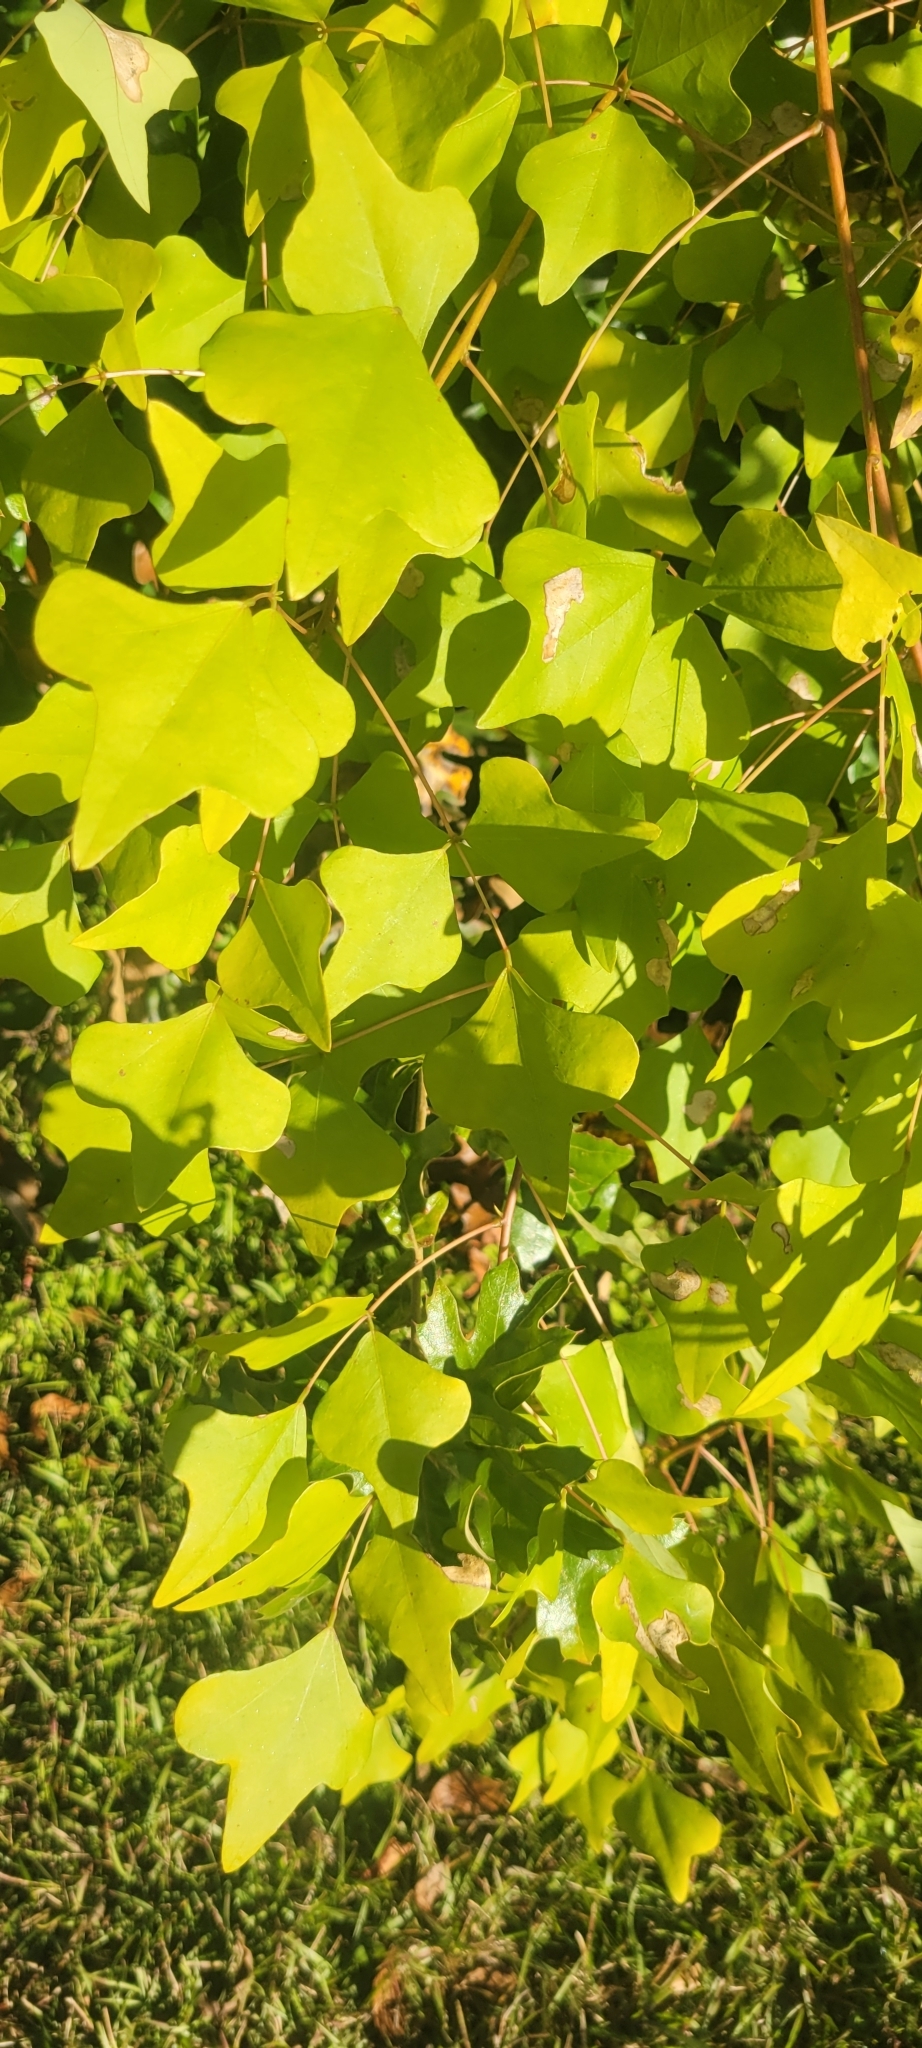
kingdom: Plantae
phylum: Tracheophyta
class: Magnoliopsida
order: Fabales
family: Fabaceae
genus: Erythrina
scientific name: Erythrina herbacea
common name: Coral-bean
